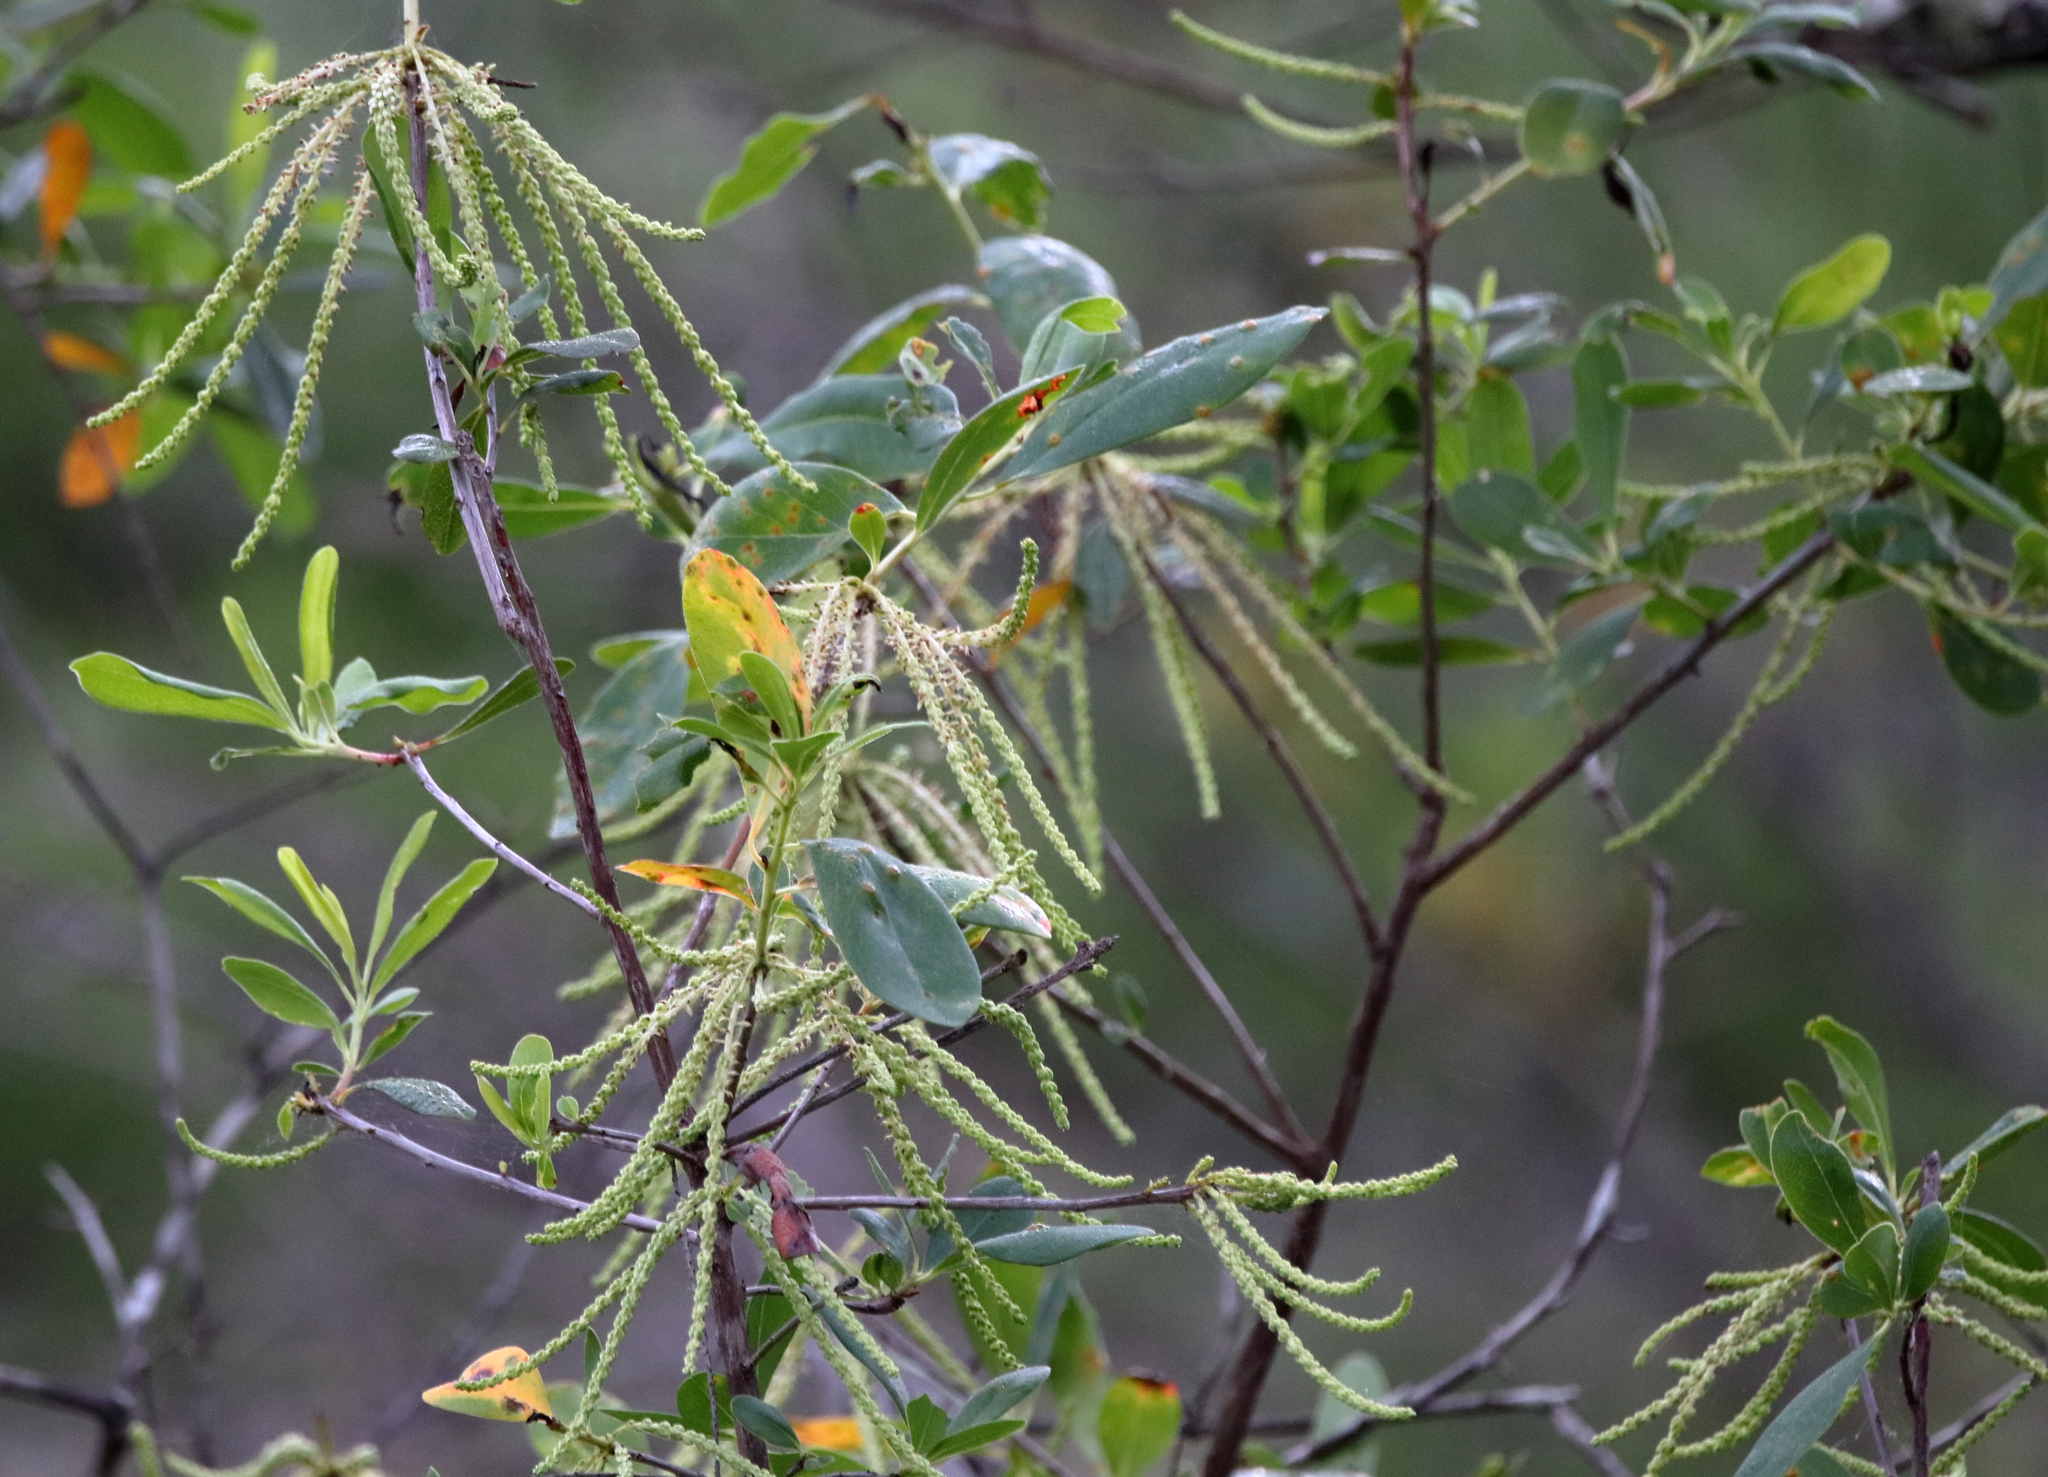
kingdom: Plantae
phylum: Tracheophyta
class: Magnoliopsida
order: Ericales
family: Cyrillaceae
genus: Cyrilla
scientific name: Cyrilla racemiflora
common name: Black titi
